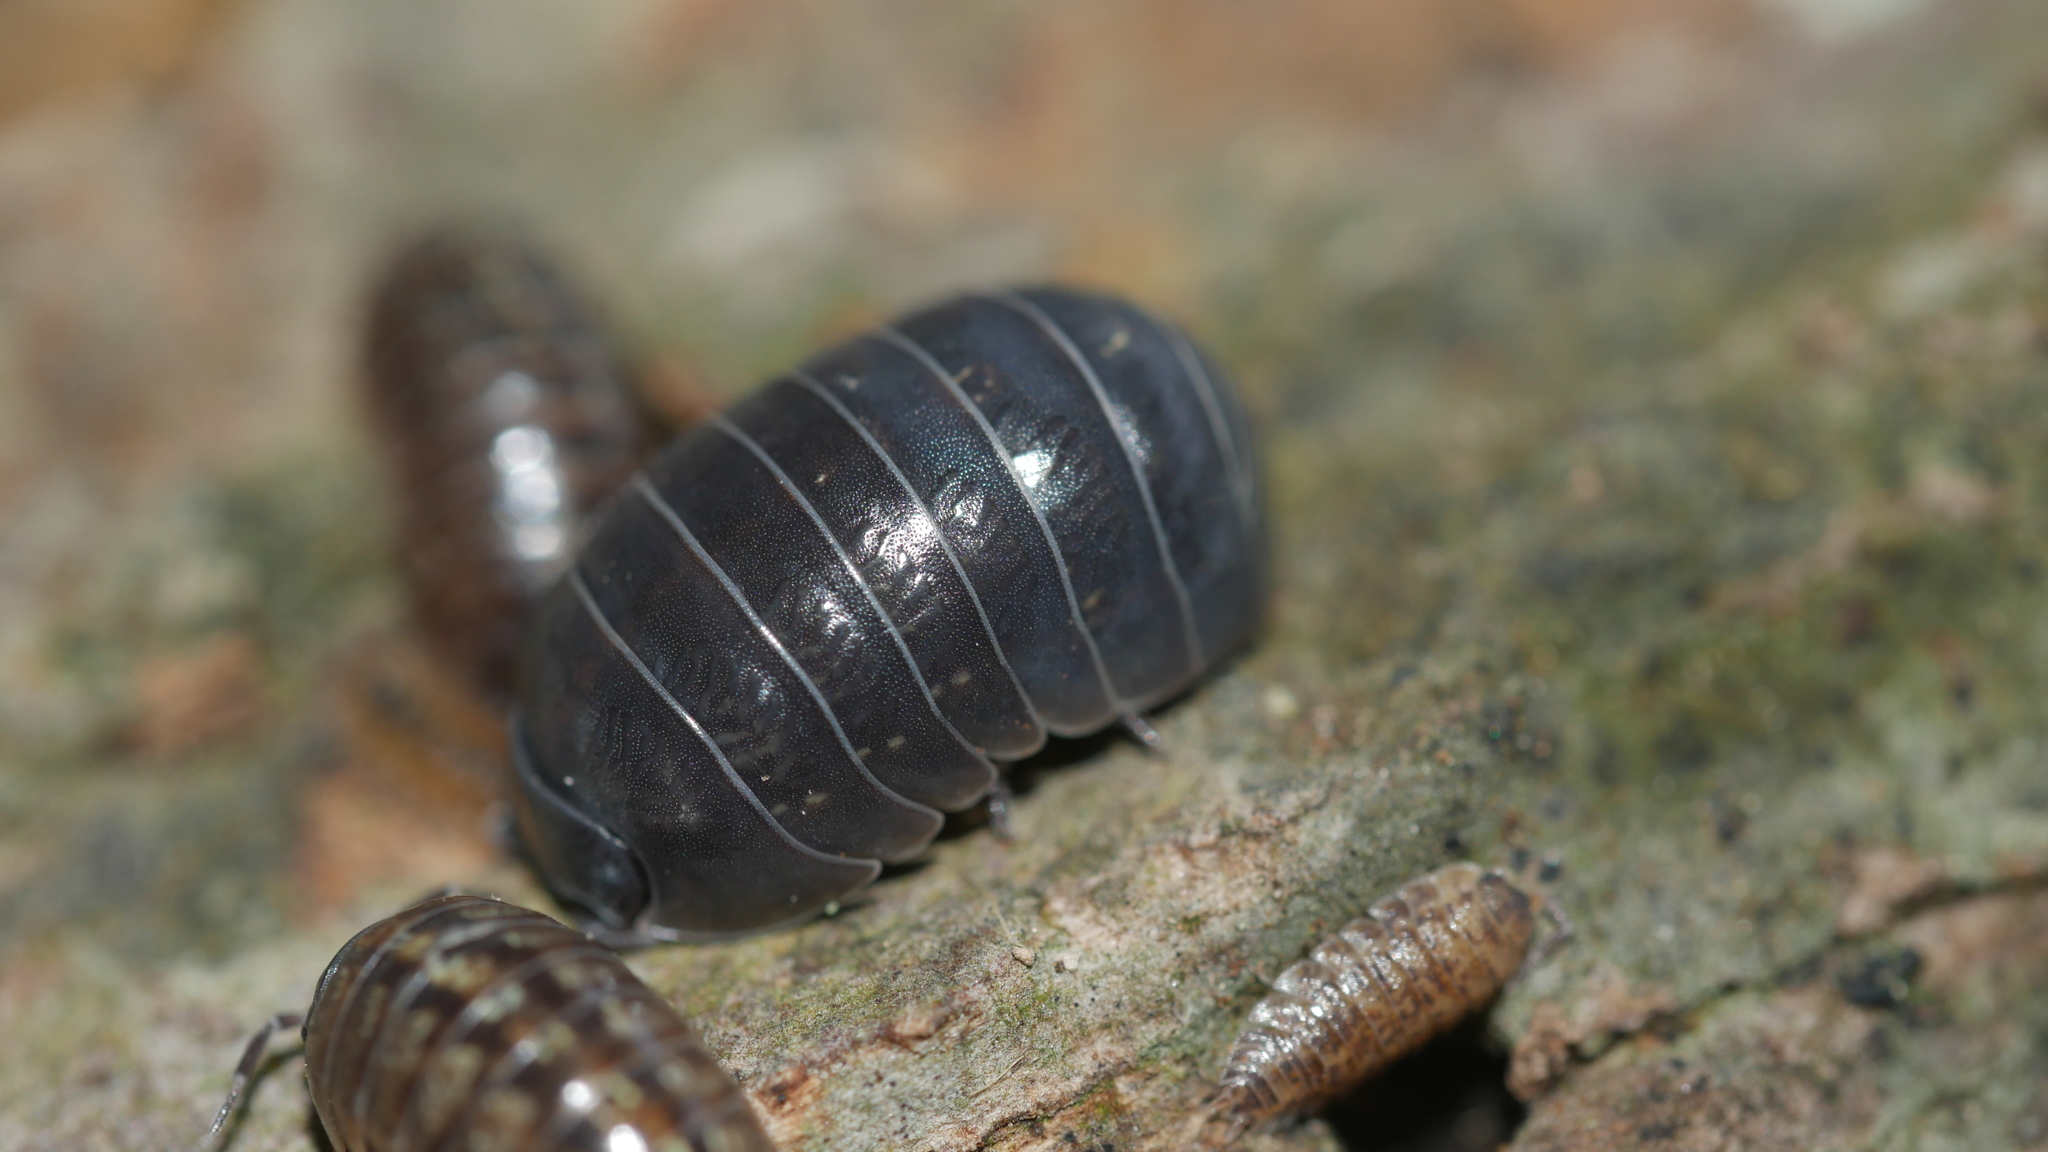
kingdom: Animalia
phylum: Arthropoda
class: Malacostraca
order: Isopoda
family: Armadillidiidae
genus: Armadillidium
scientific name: Armadillidium vulgare
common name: Common pill woodlouse
